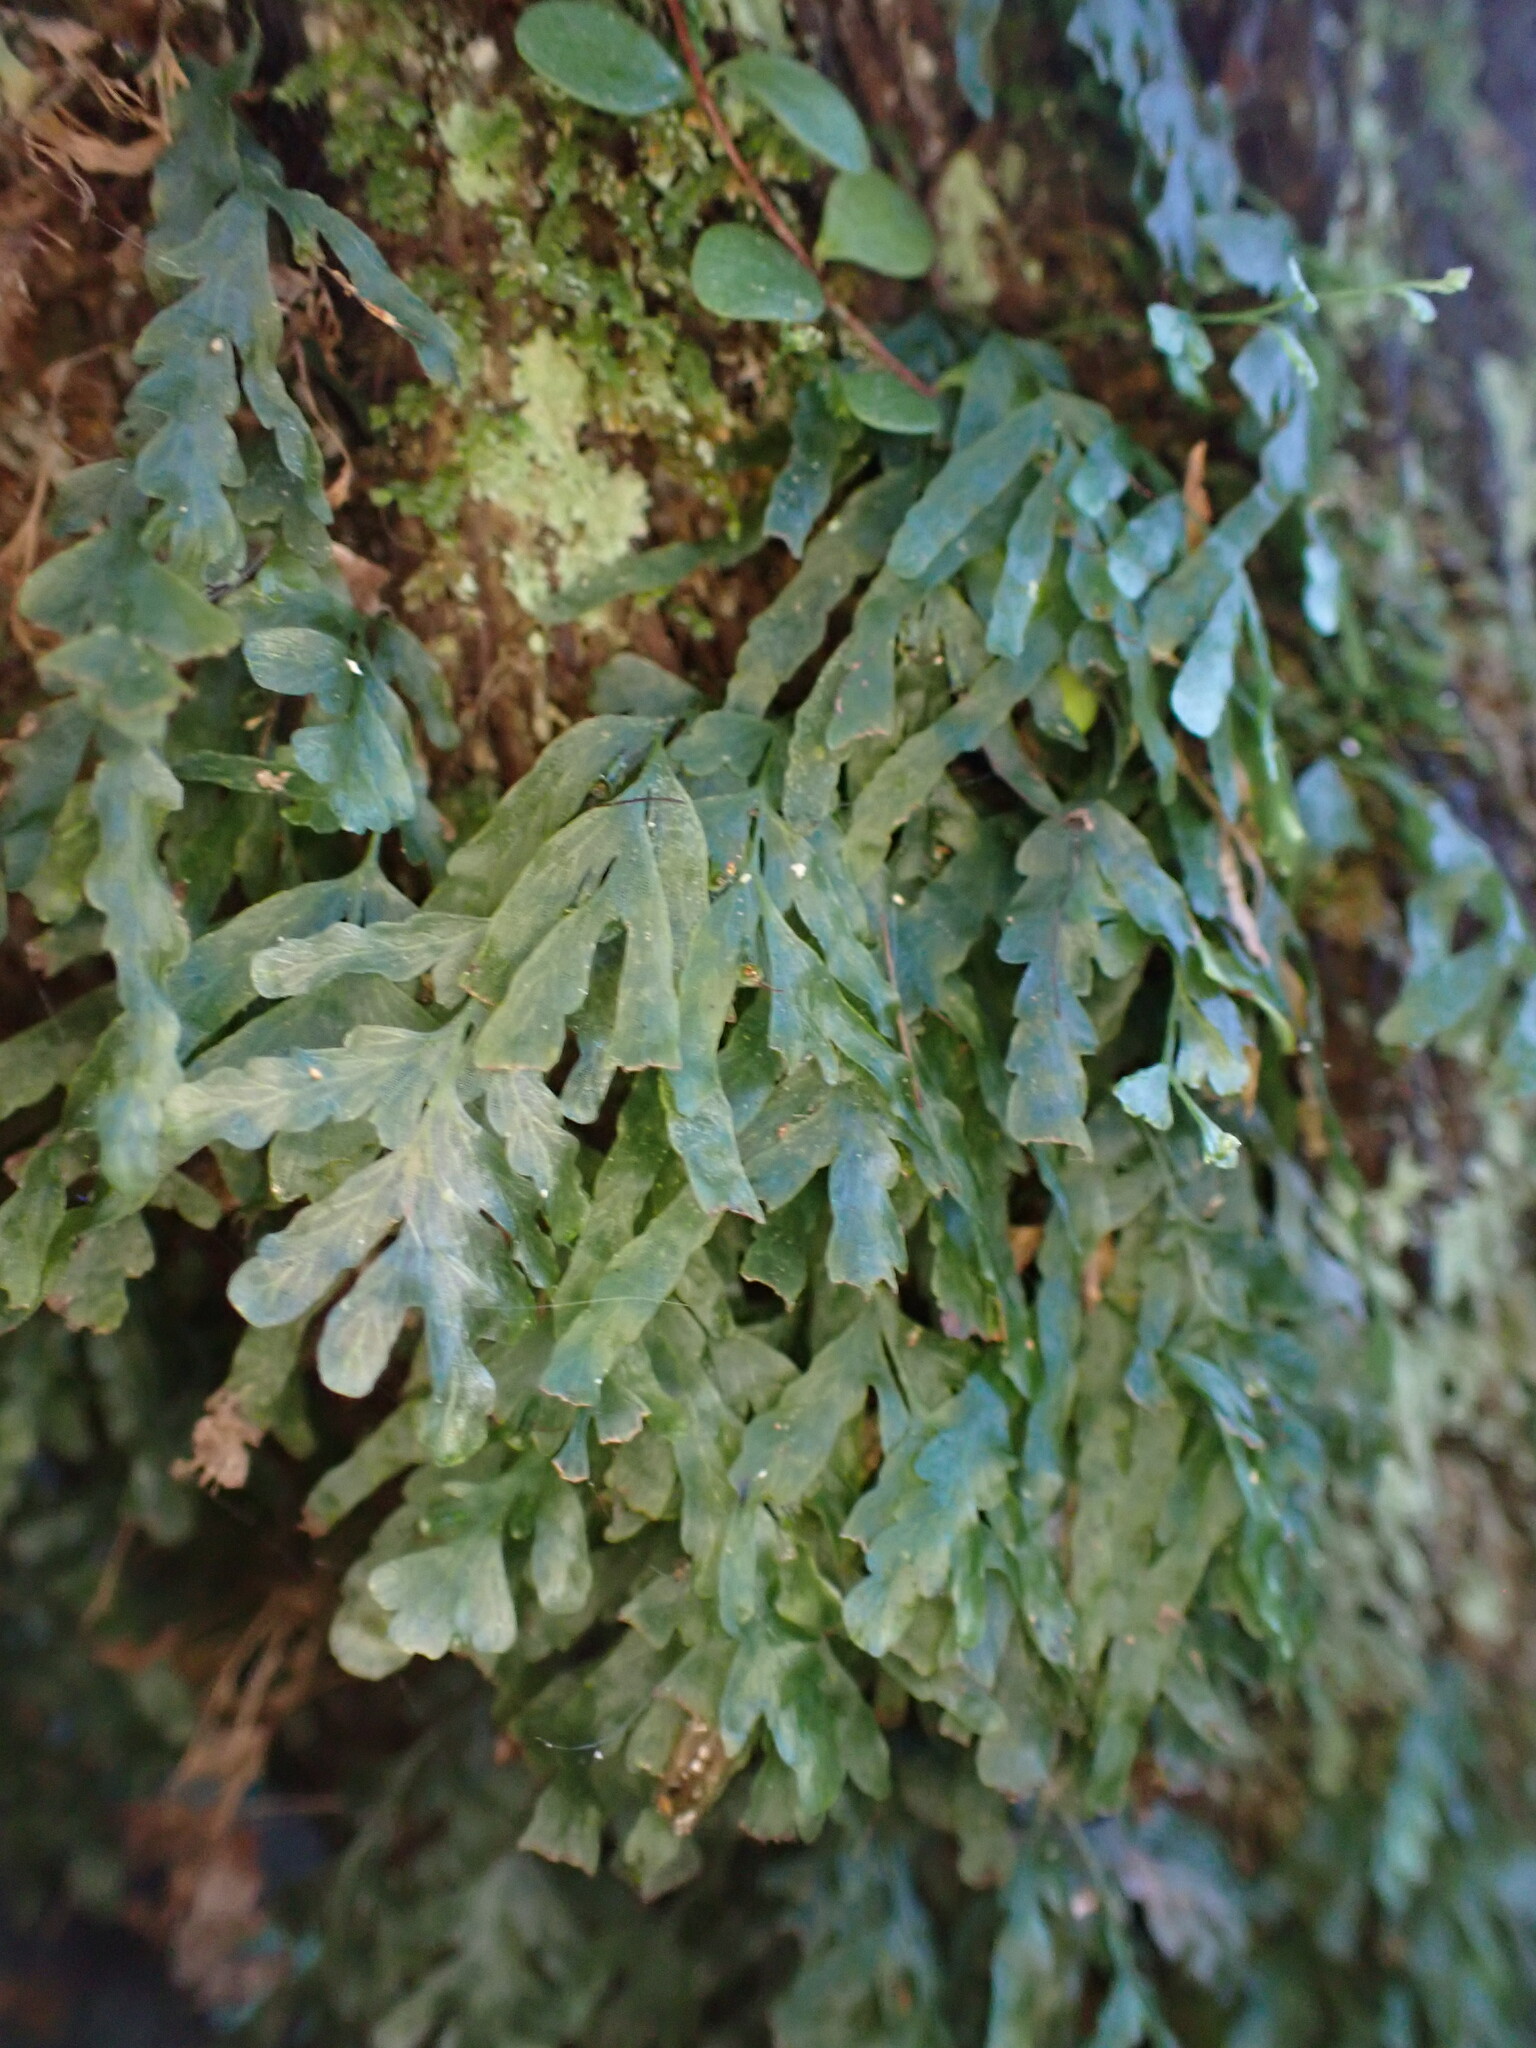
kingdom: Plantae
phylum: Tracheophyta
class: Polypodiopsida
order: Hymenophyllales
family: Hymenophyllaceae
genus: Polyphlebium
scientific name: Polyphlebium venosum
